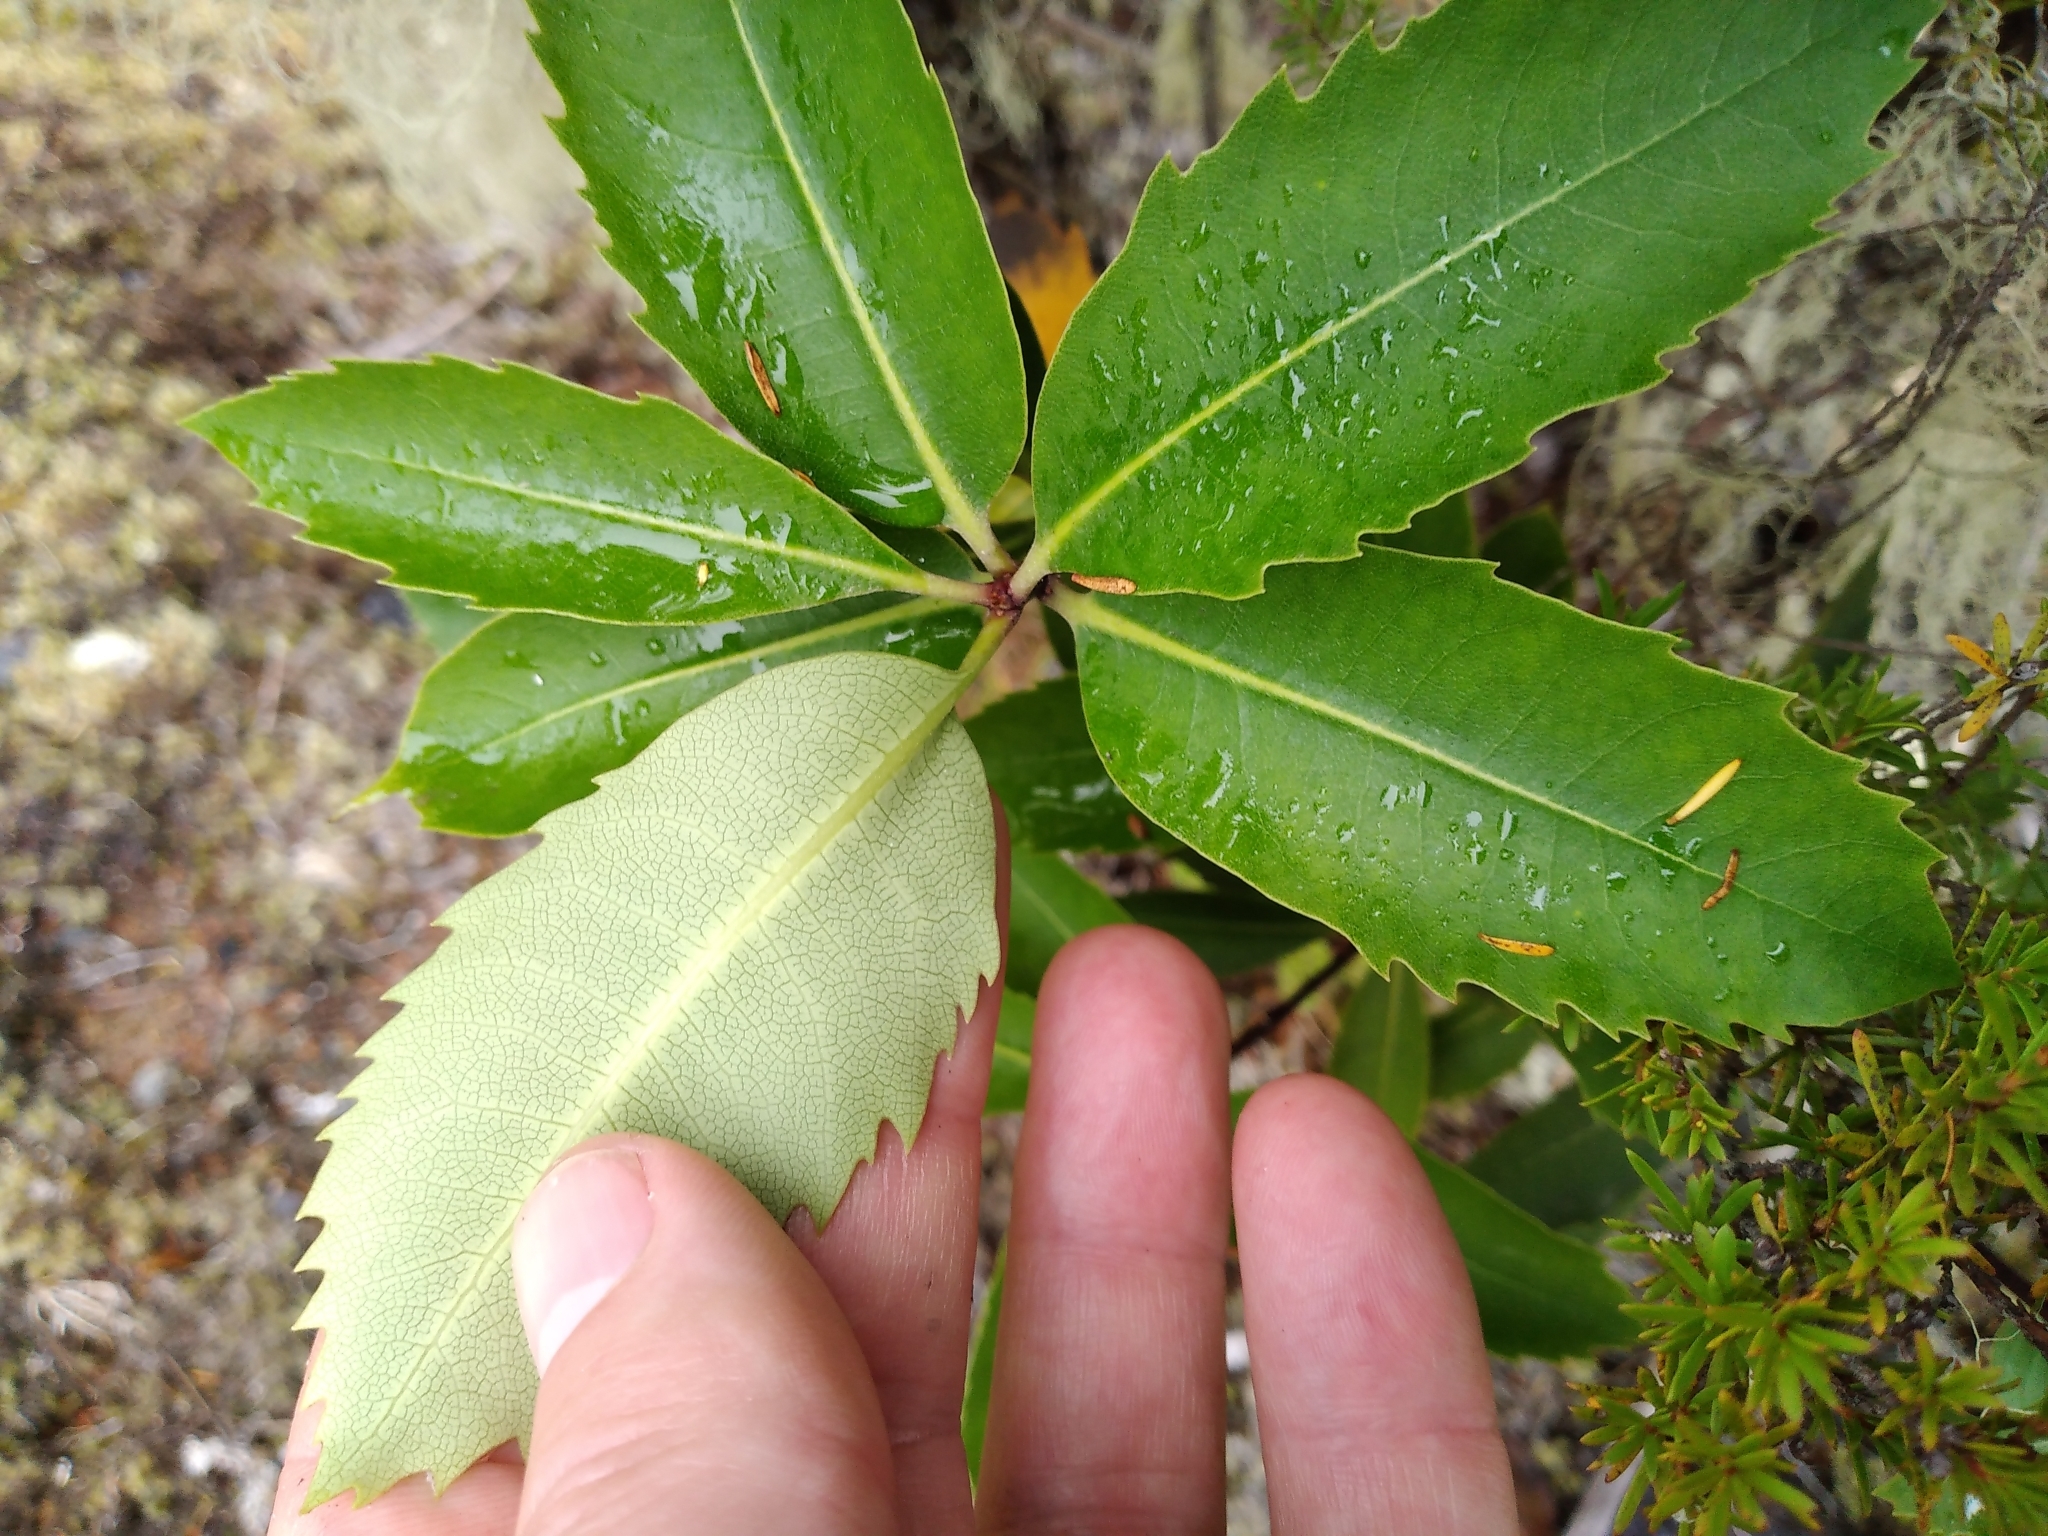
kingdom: Plantae
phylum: Tracheophyta
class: Magnoliopsida
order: Apiales
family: Pittosporaceae
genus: Pittosporum
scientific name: Pittosporum dallii
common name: Dalls pittosporum
